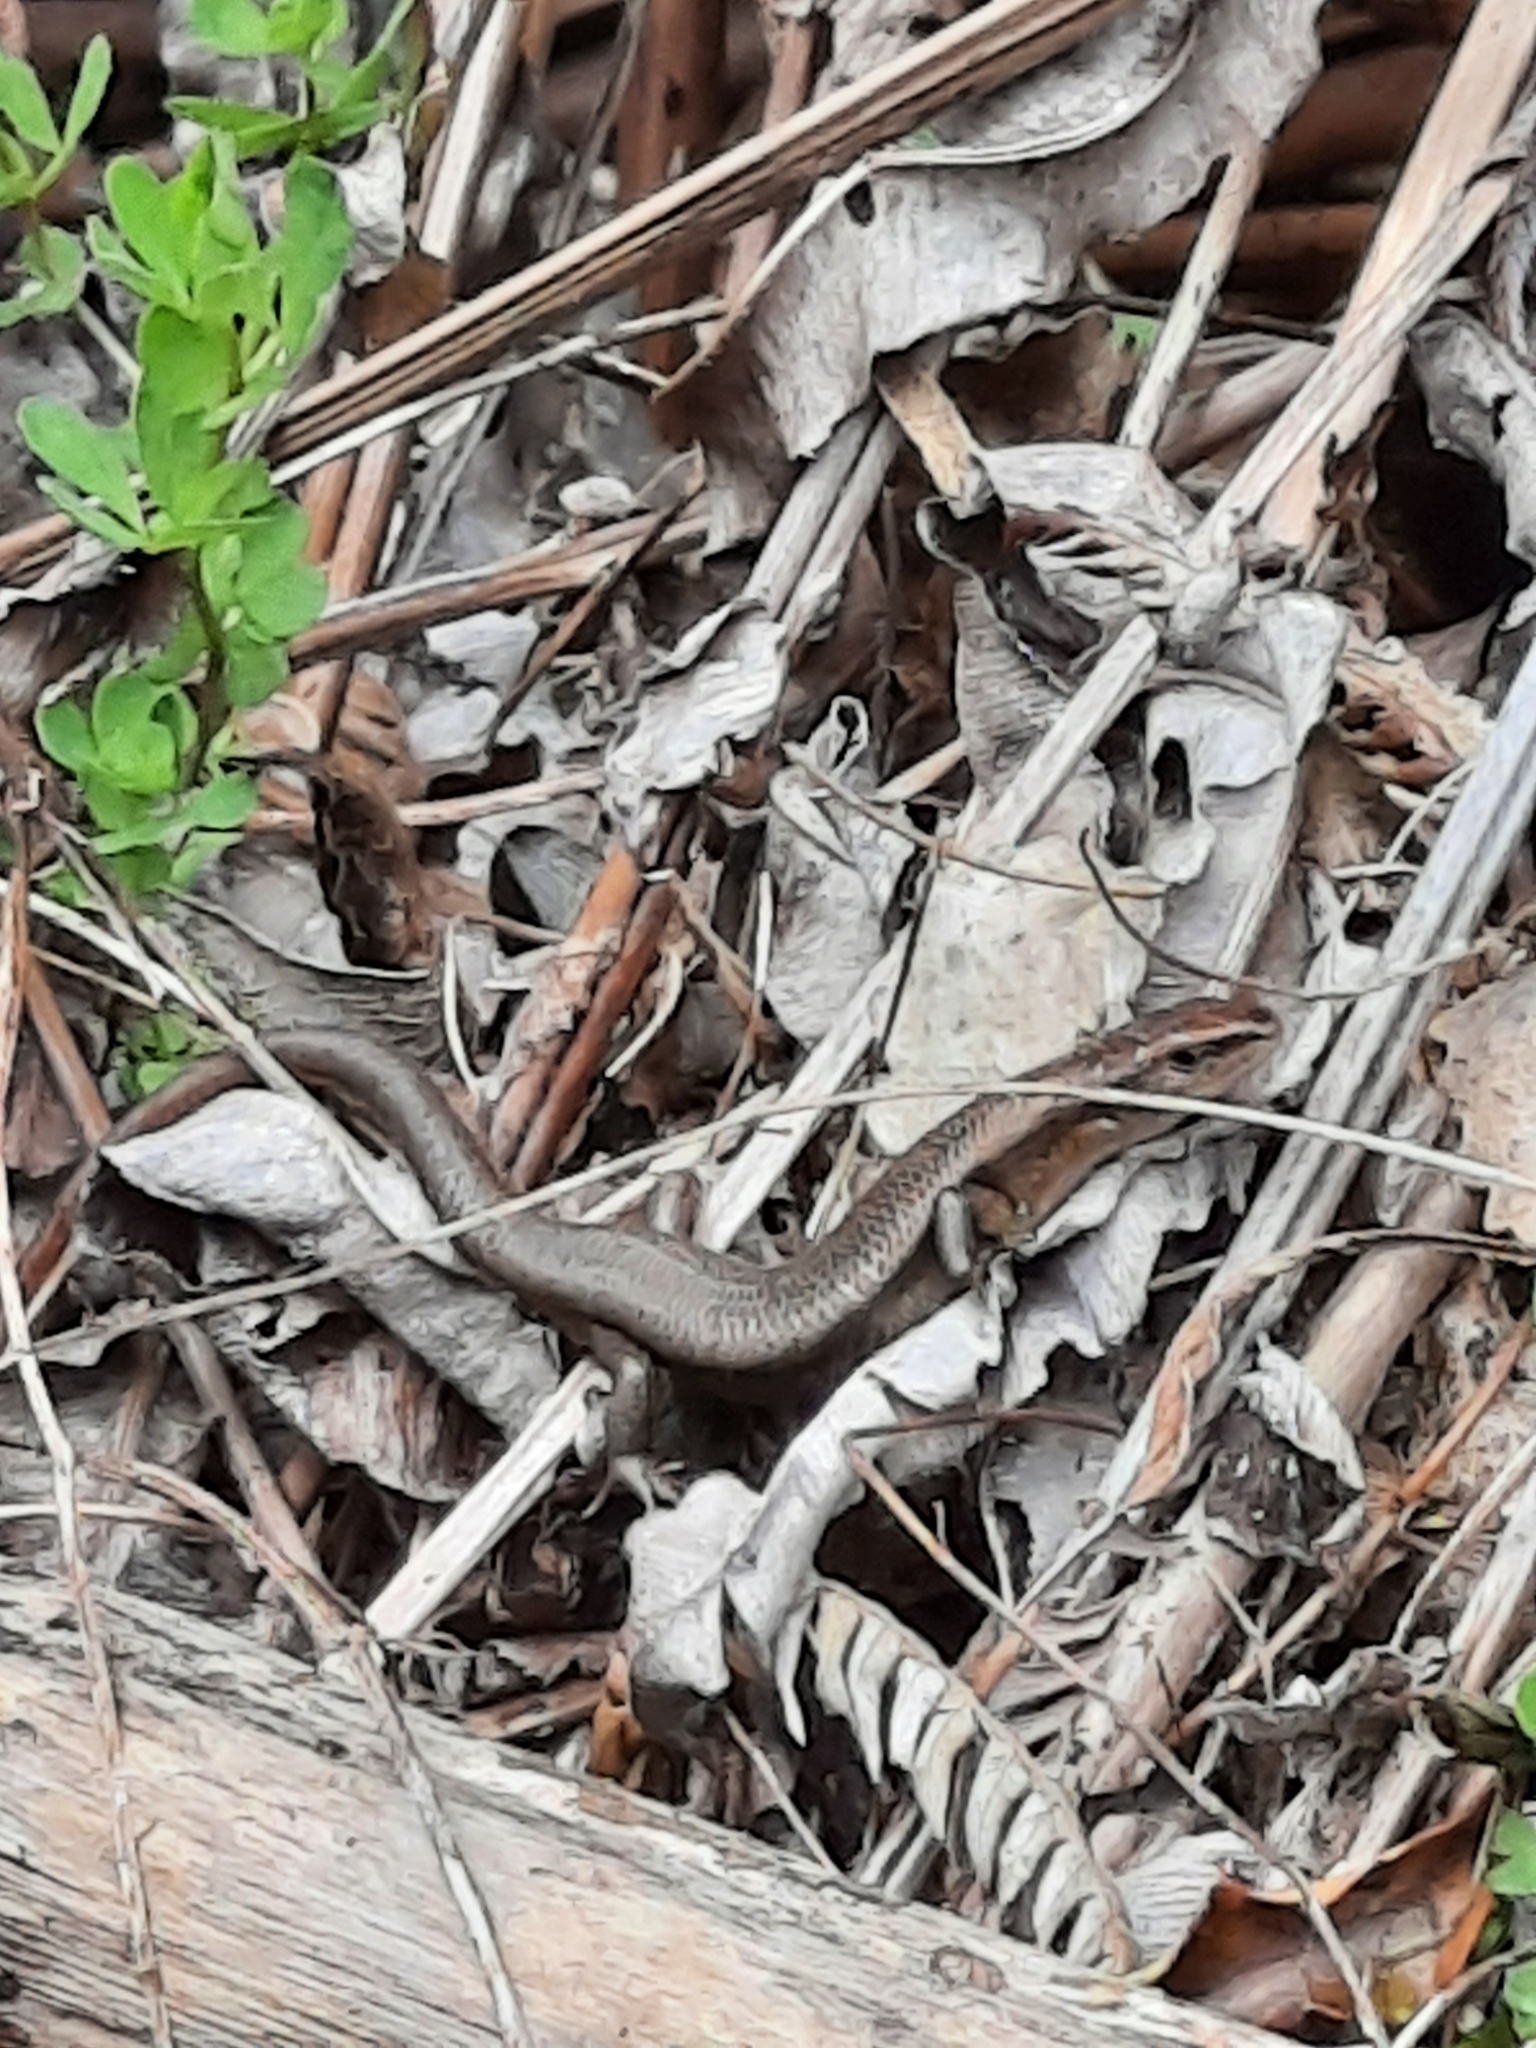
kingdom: Animalia
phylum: Chordata
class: Squamata
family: Scincidae
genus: Lampropholis
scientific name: Lampropholis delicata
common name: Plague skink
